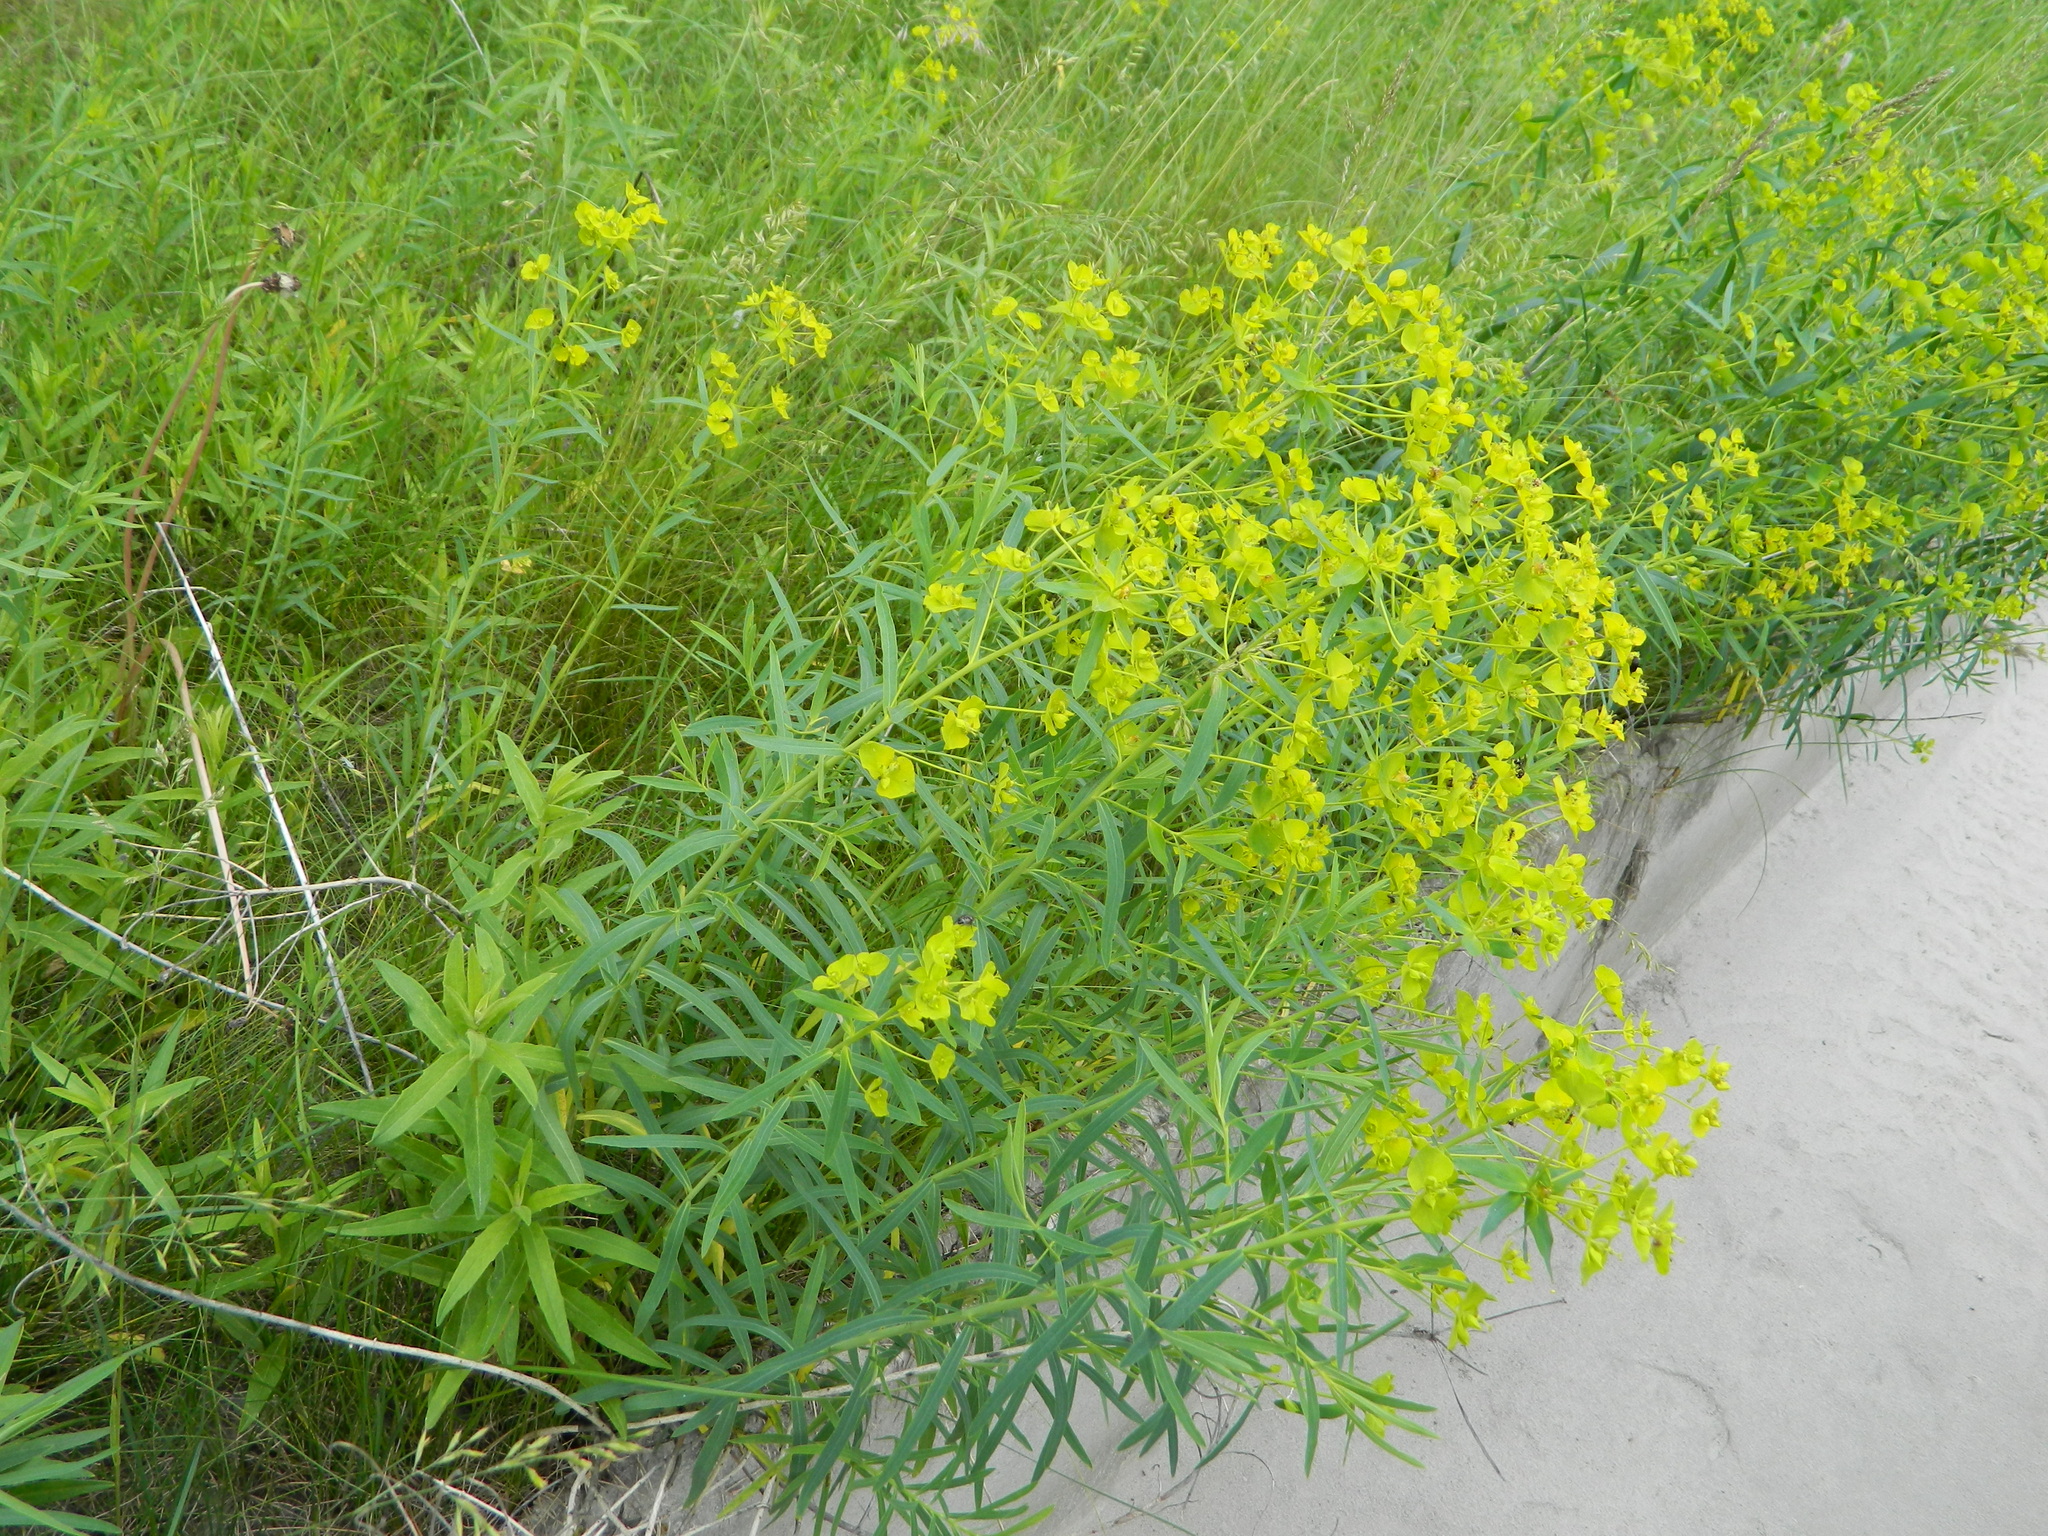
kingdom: Plantae
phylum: Tracheophyta
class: Magnoliopsida
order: Malpighiales
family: Euphorbiaceae
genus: Euphorbia
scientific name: Euphorbia virgata
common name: Leafy spurge
